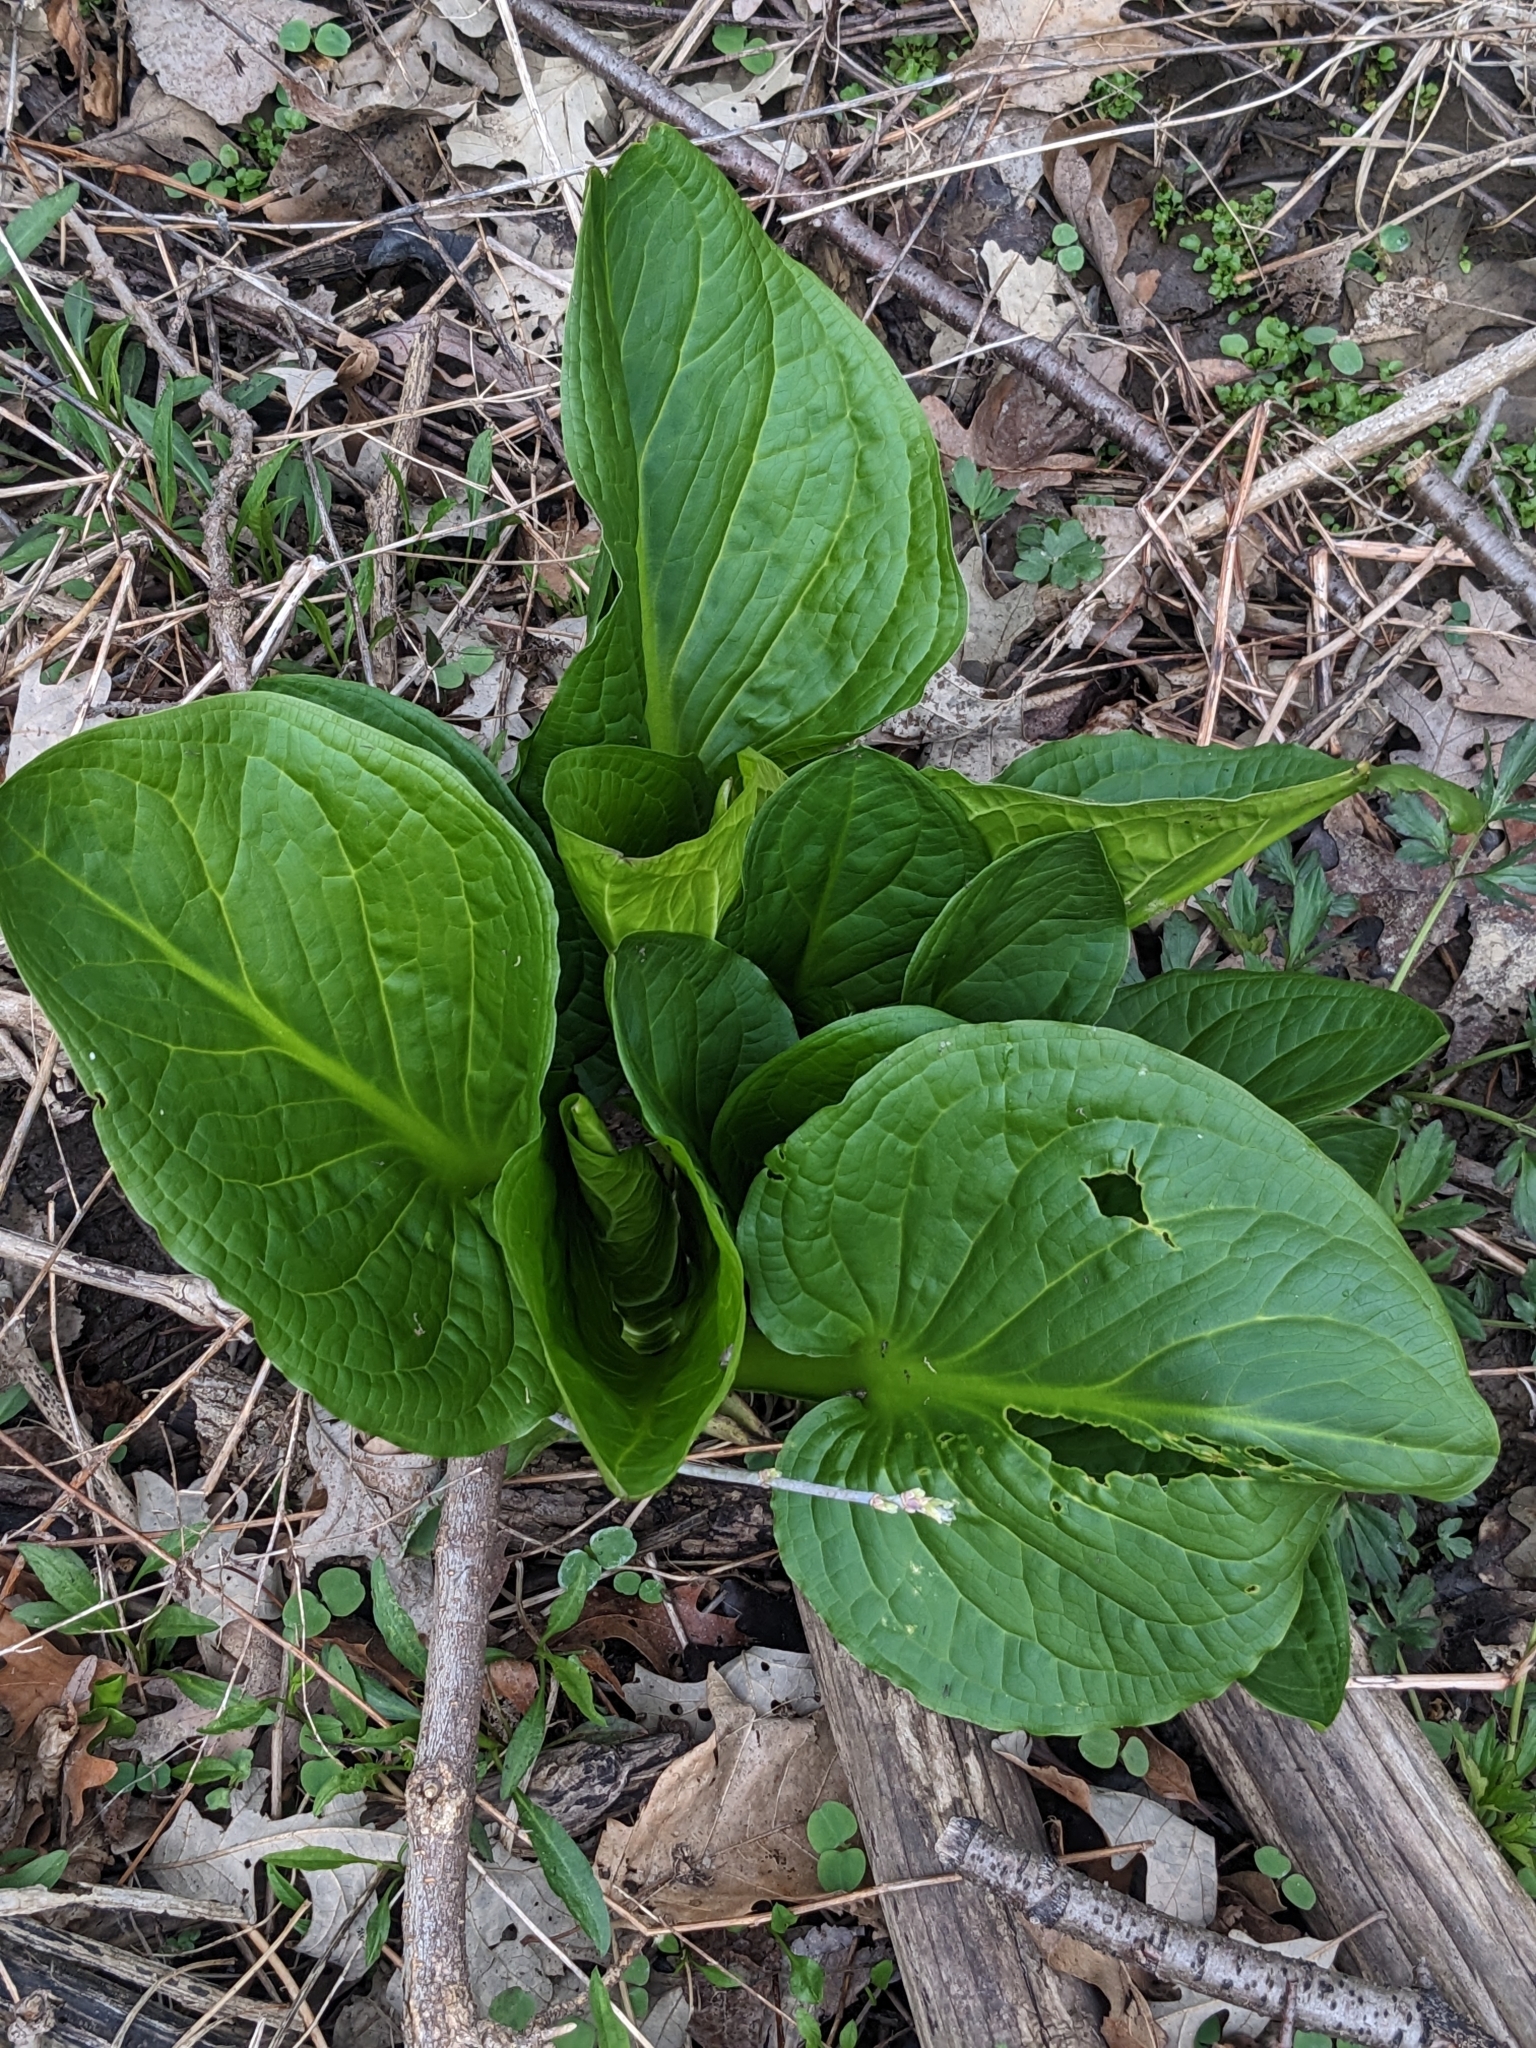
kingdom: Plantae
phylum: Tracheophyta
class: Liliopsida
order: Alismatales
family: Araceae
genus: Symplocarpus
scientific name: Symplocarpus foetidus
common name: Eastern skunk cabbage
